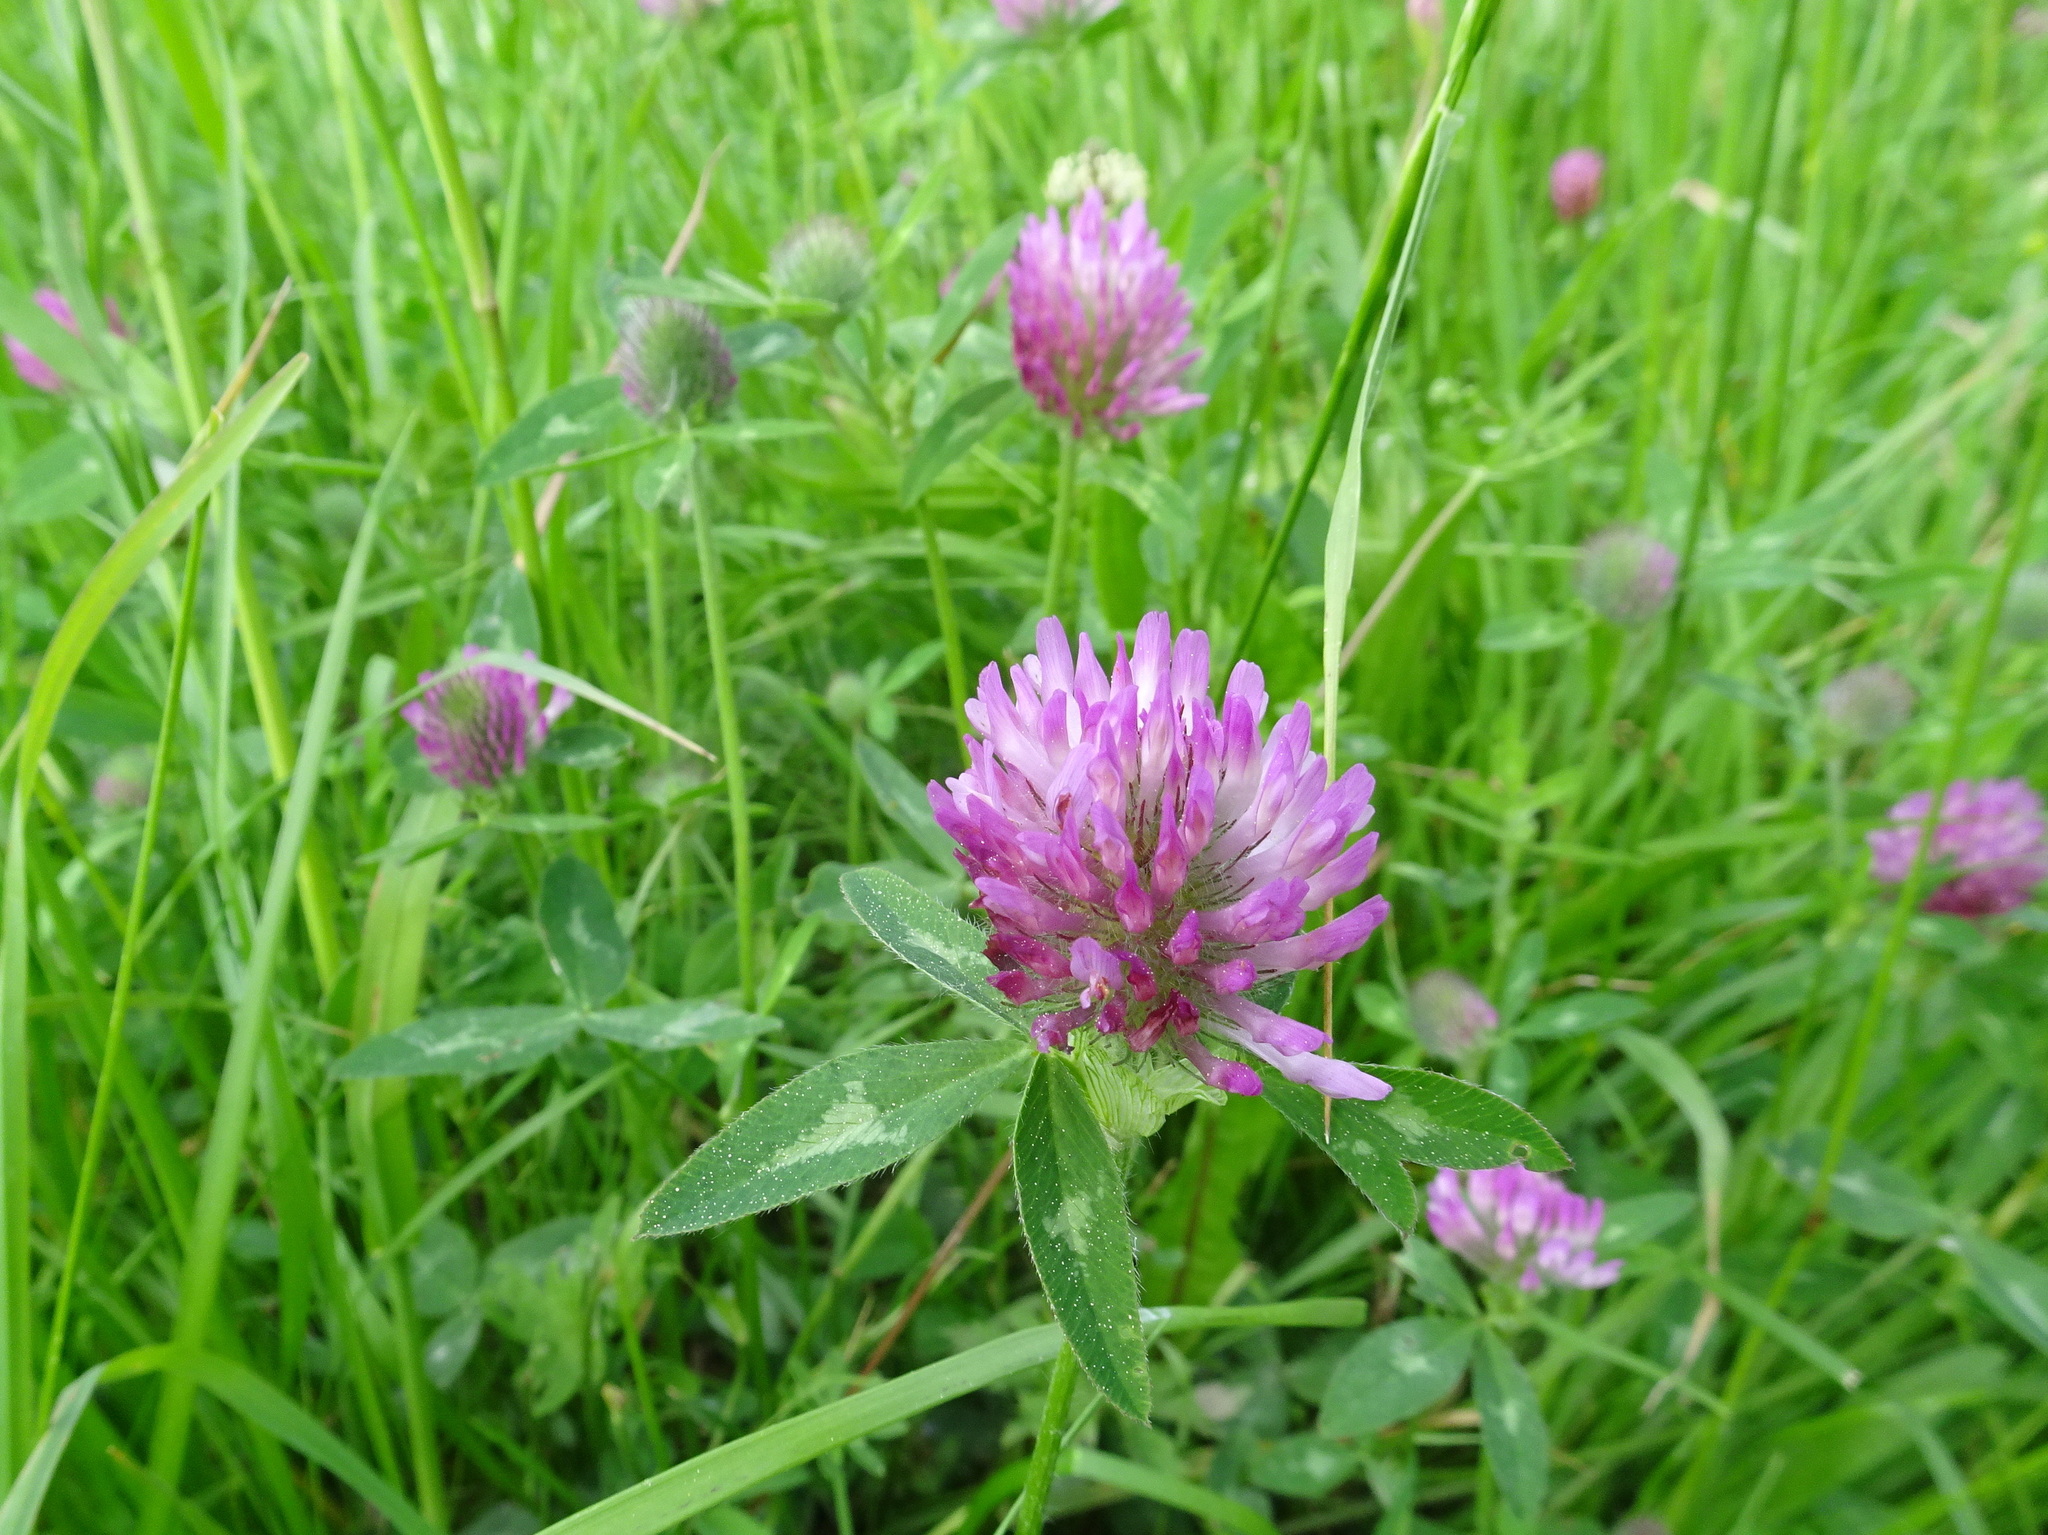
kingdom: Plantae
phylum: Tracheophyta
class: Magnoliopsida
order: Fabales
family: Fabaceae
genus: Trifolium
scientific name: Trifolium pratense
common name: Red clover
